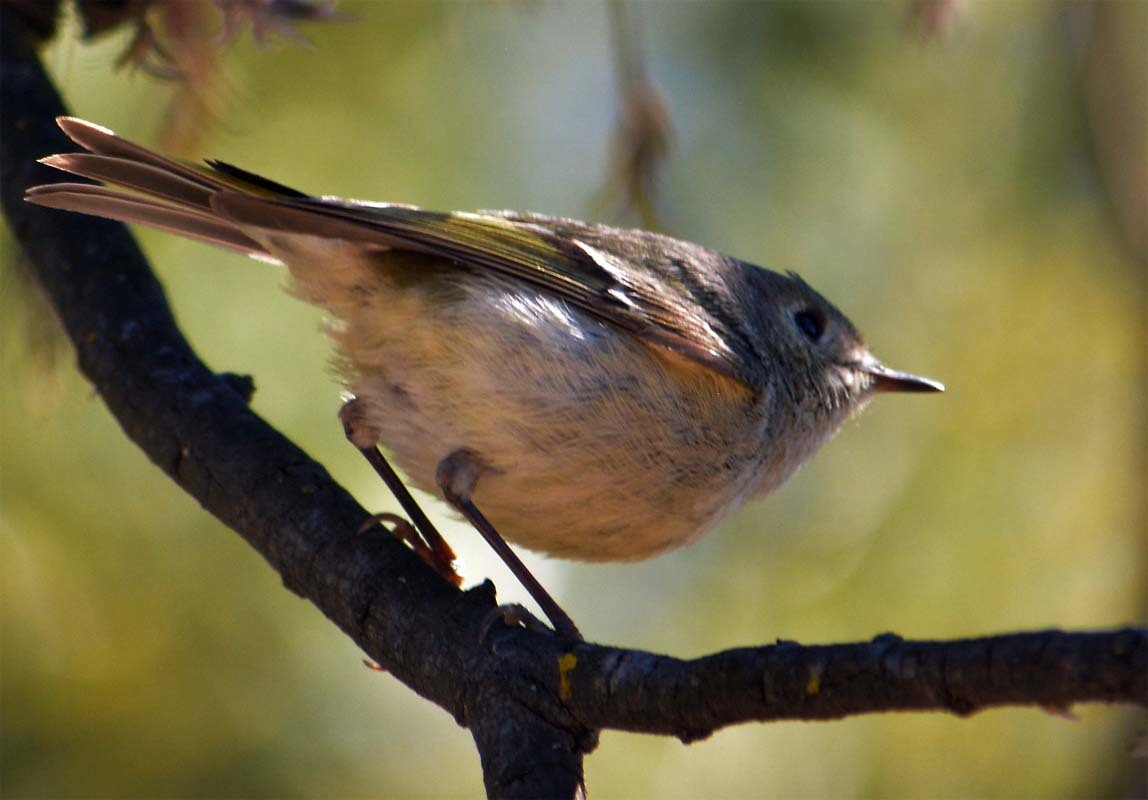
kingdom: Animalia
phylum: Chordata
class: Aves
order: Passeriformes
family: Regulidae
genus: Regulus
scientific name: Regulus calendula
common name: Ruby-crowned kinglet
